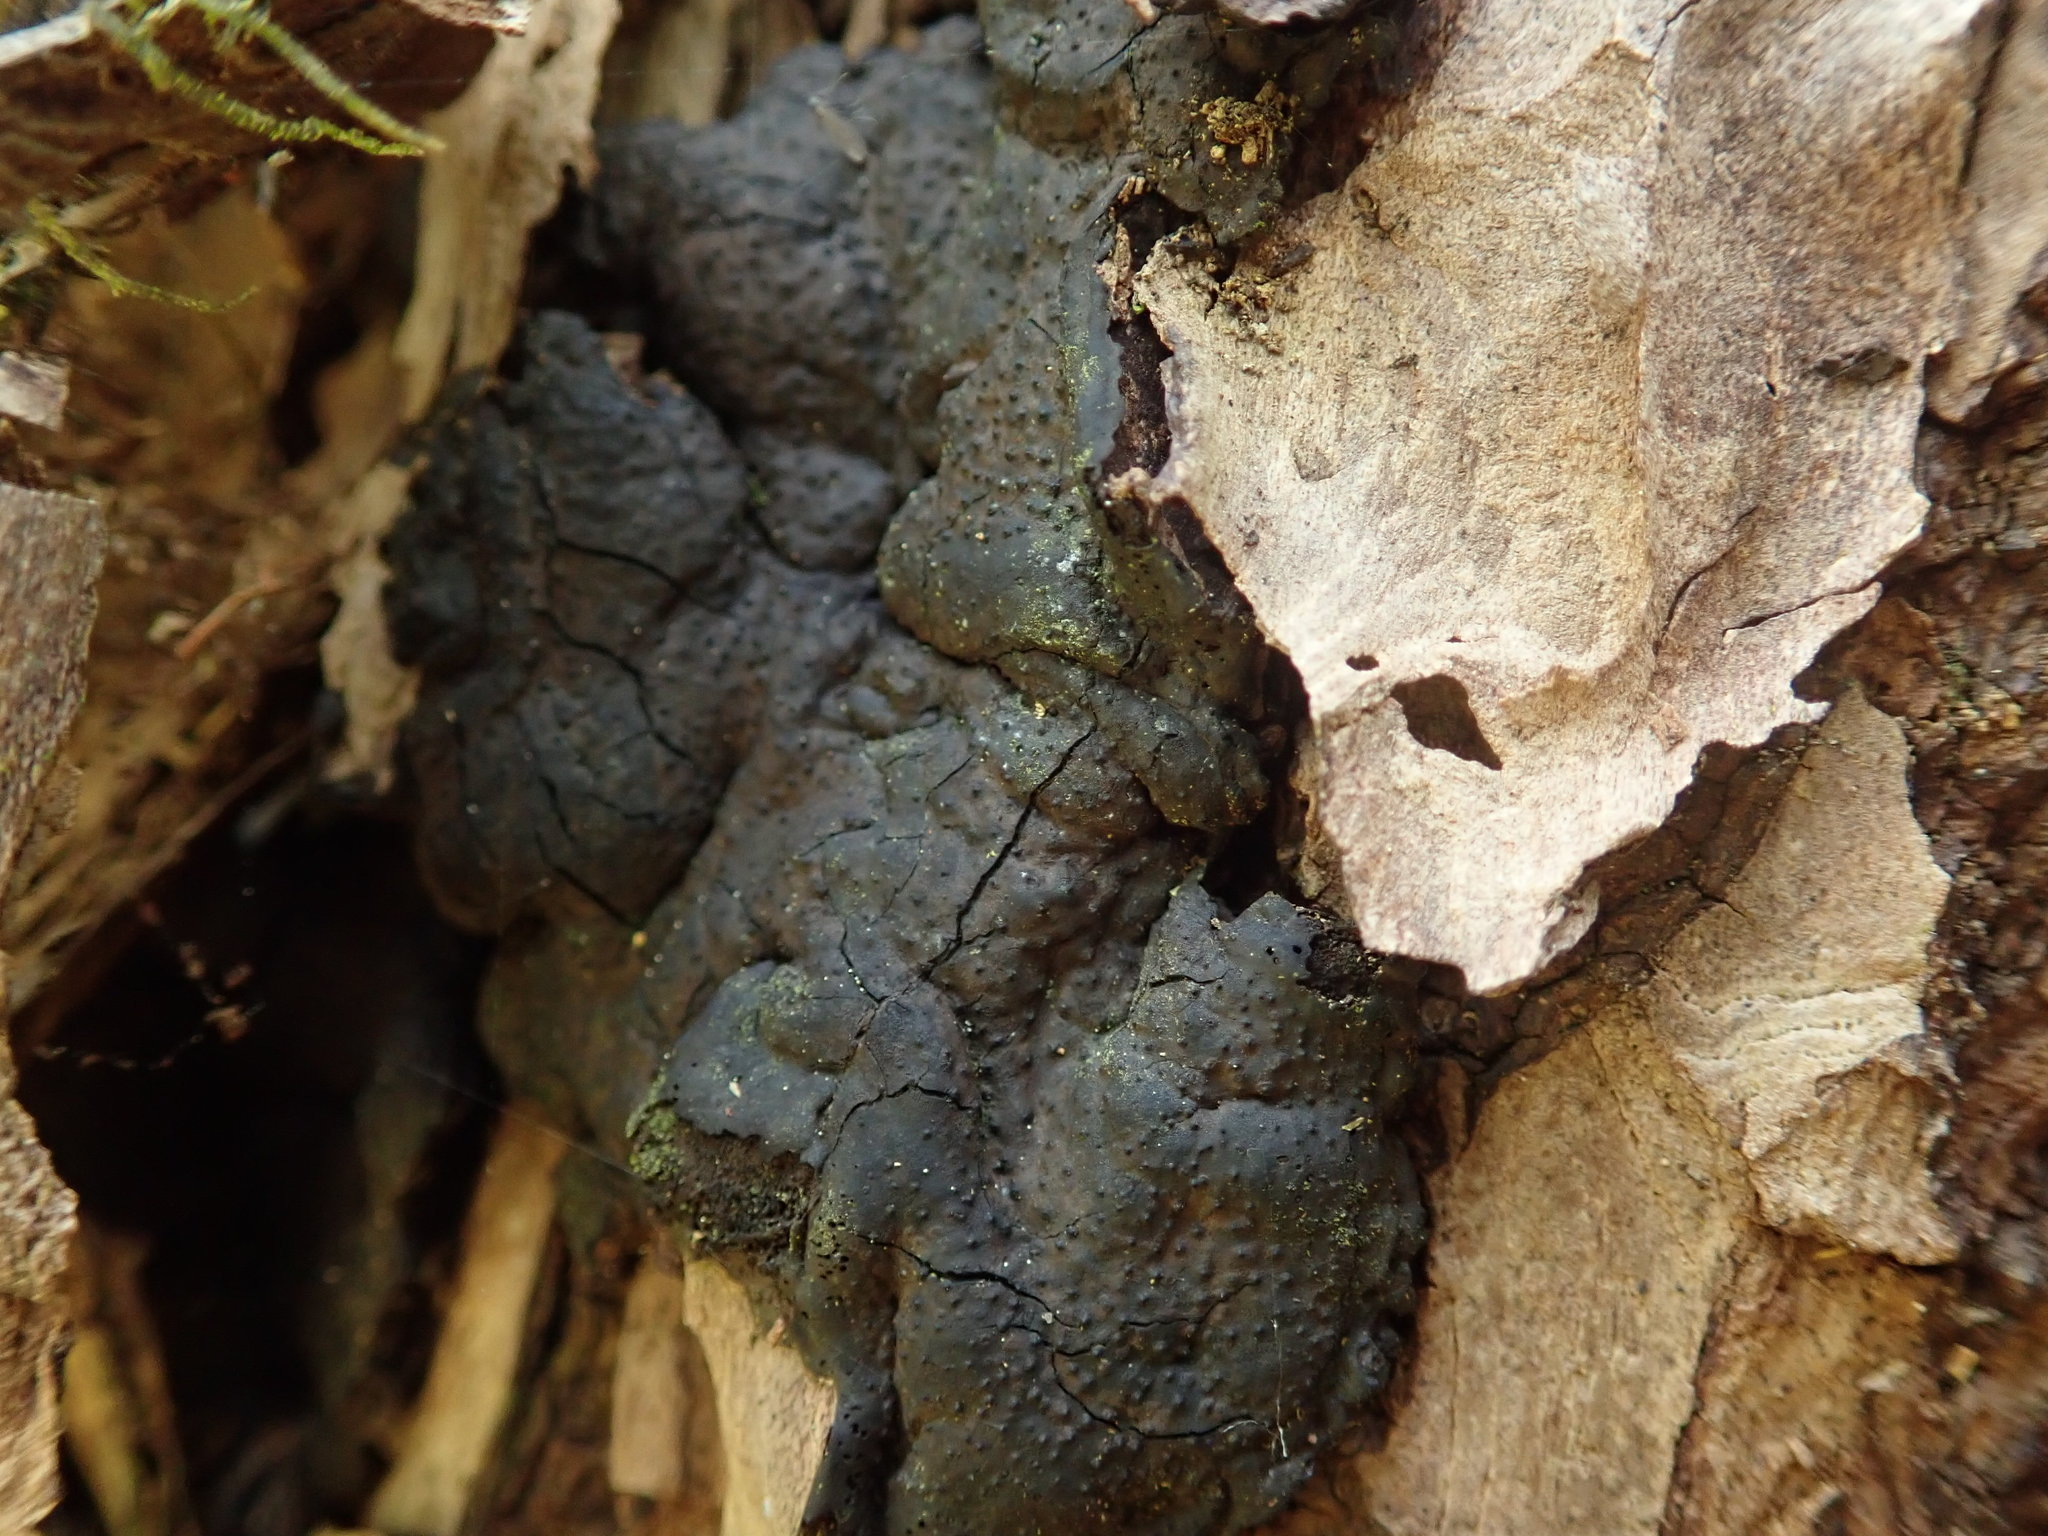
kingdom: Fungi
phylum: Ascomycota
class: Sordariomycetes
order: Xylariales
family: Xylariaceae
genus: Kretzschmaria
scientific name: Kretzschmaria deusta
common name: Brittle cinder
